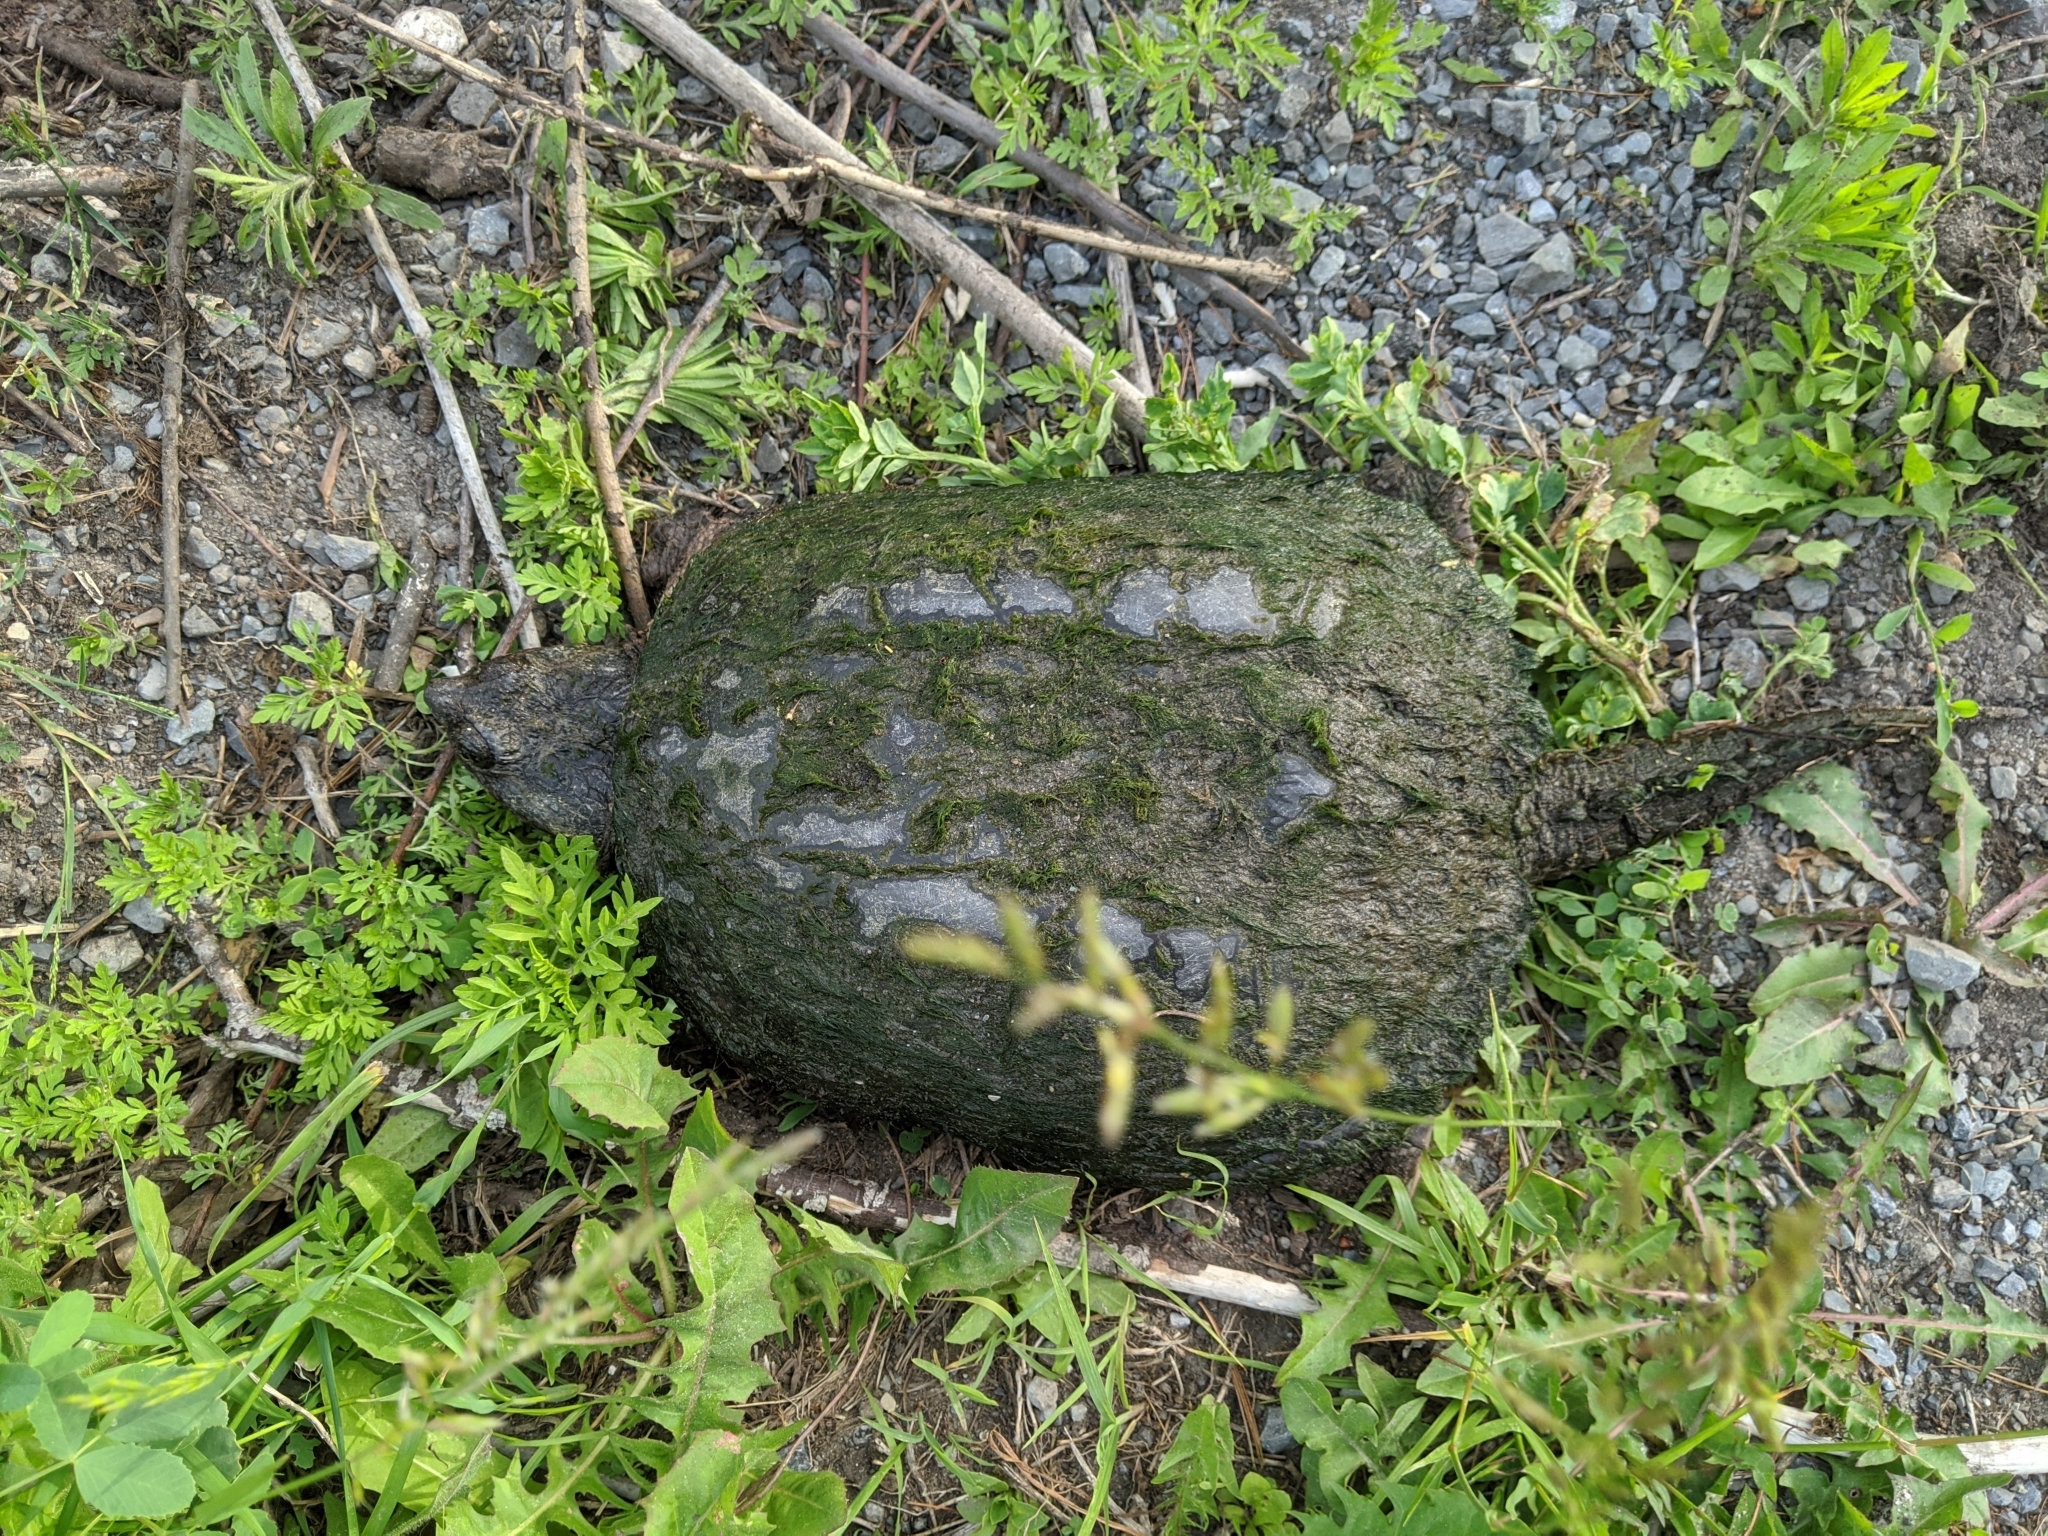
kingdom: Animalia
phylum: Chordata
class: Testudines
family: Chelydridae
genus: Chelydra
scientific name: Chelydra serpentina
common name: Common snapping turtle
